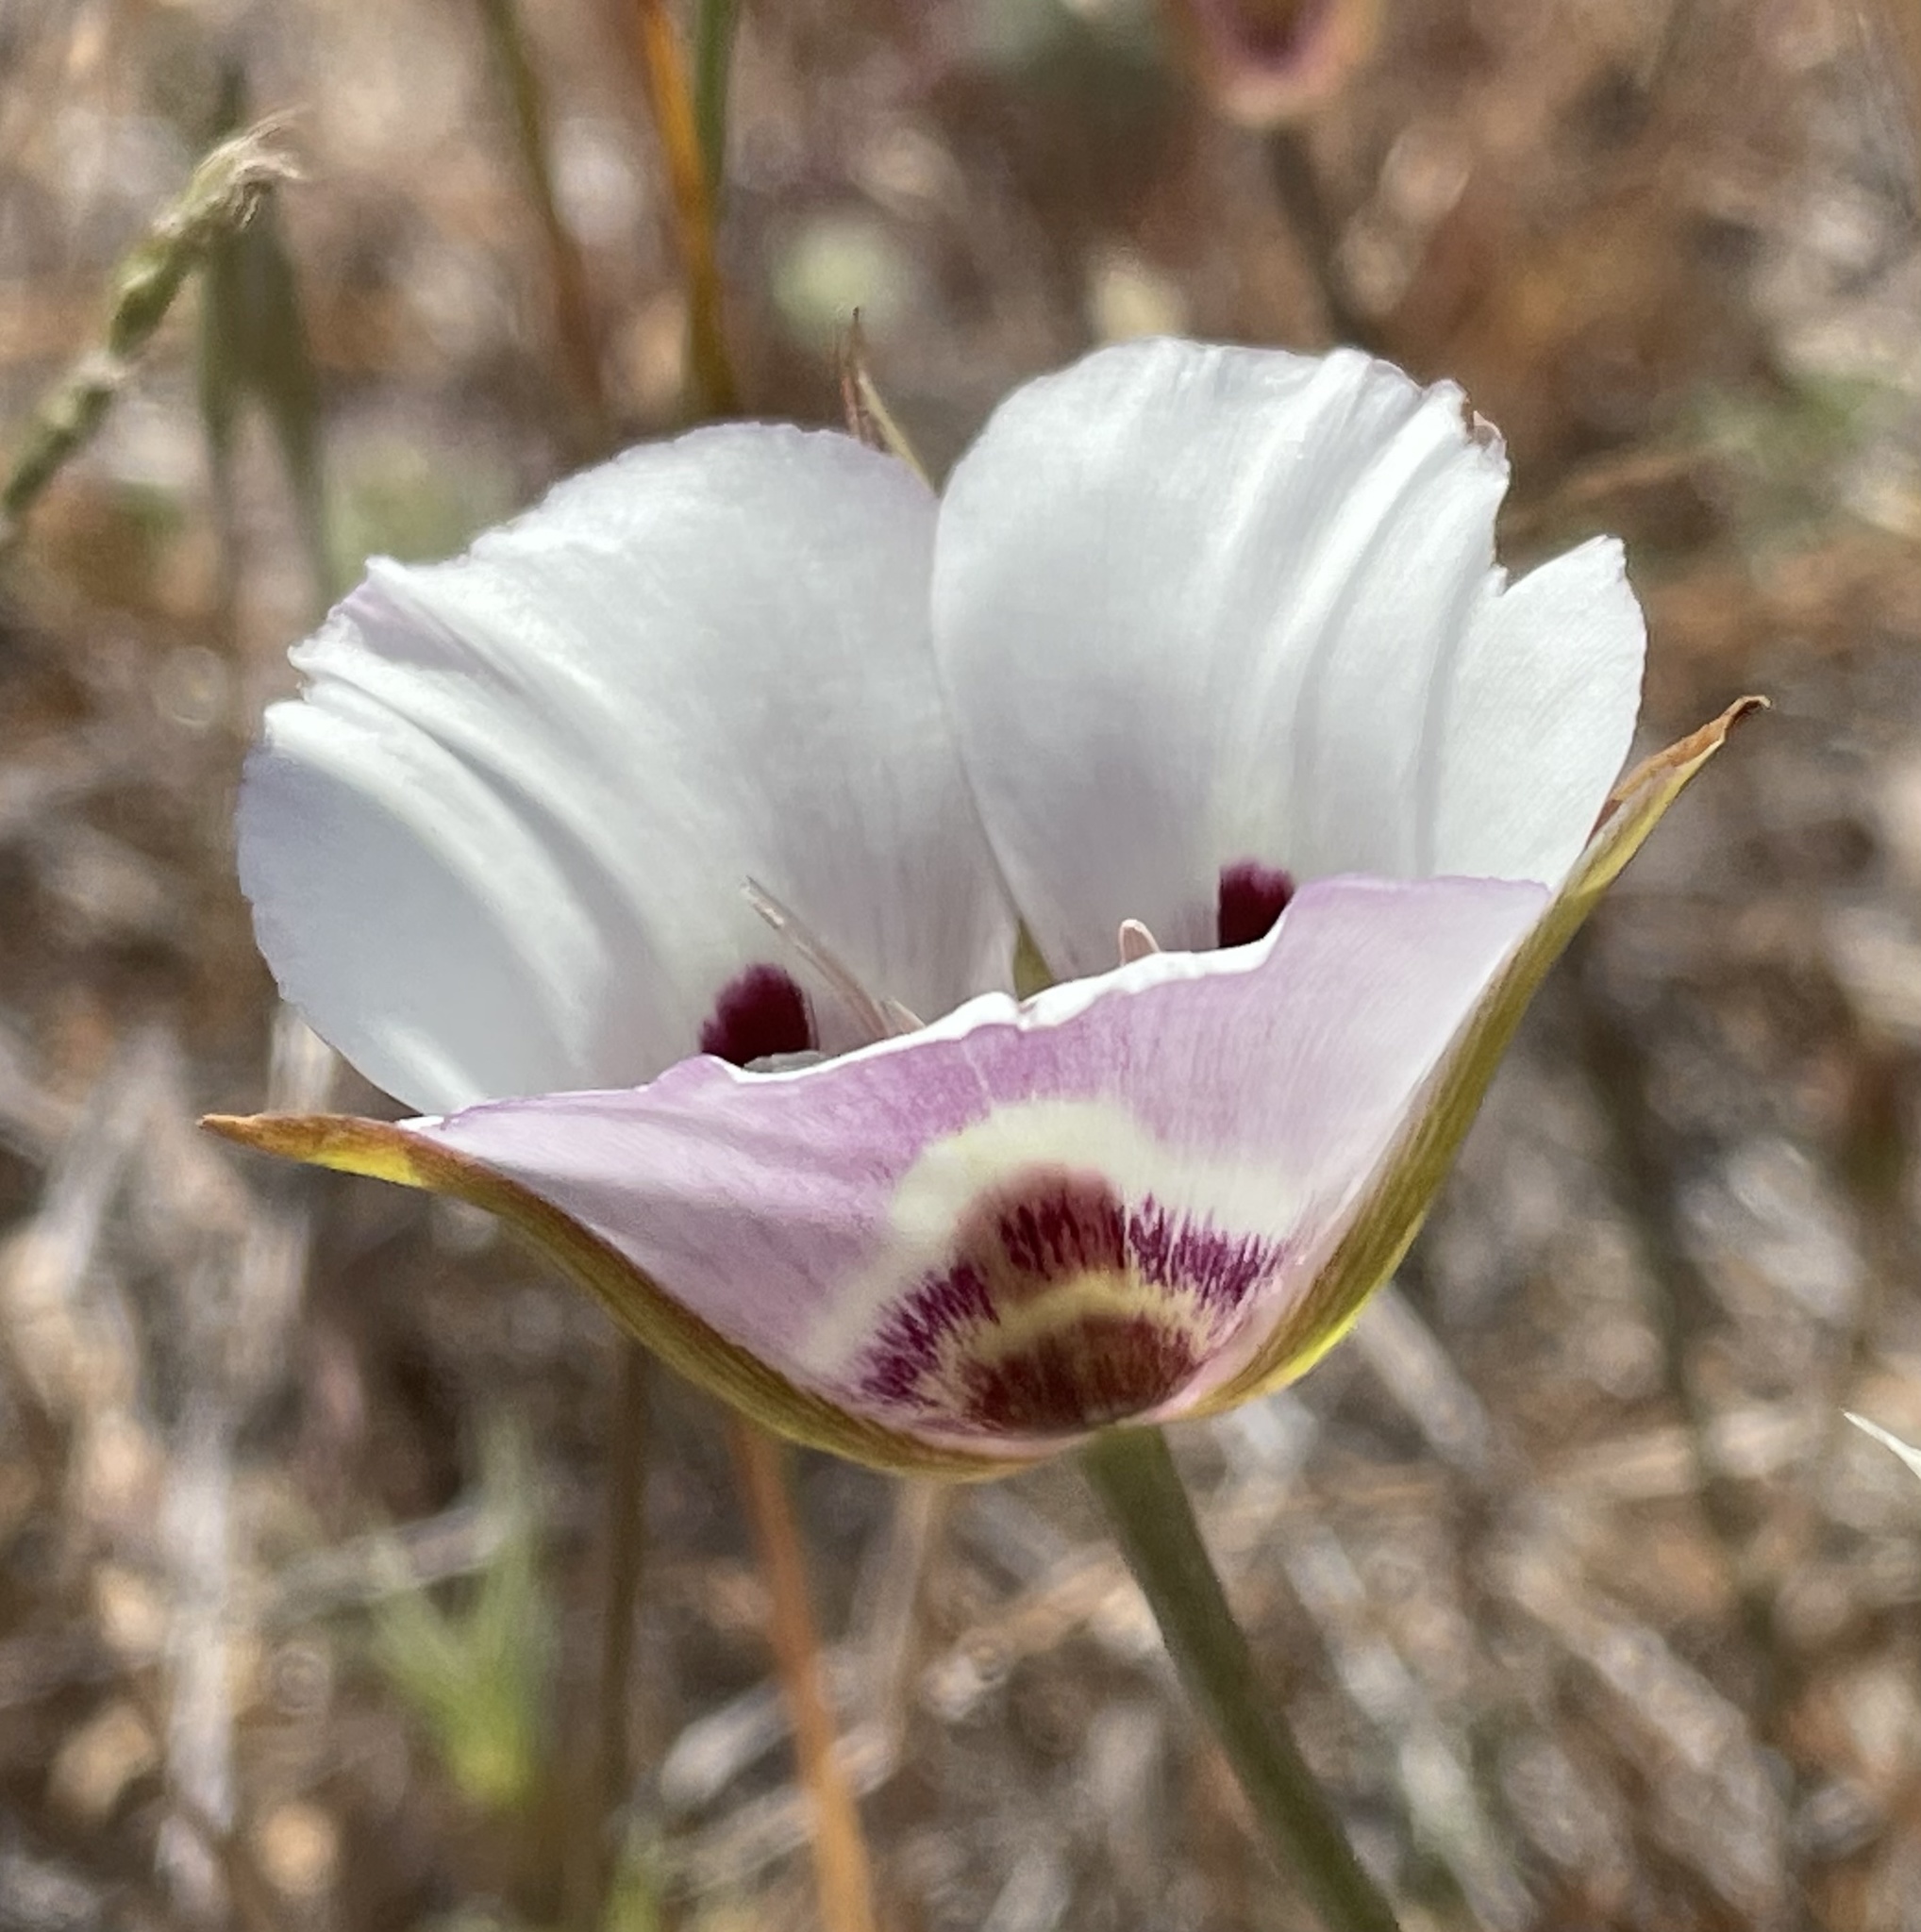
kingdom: Plantae
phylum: Tracheophyta
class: Liliopsida
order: Liliales
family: Liliaceae
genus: Calochortus
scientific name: Calochortus argillosus
